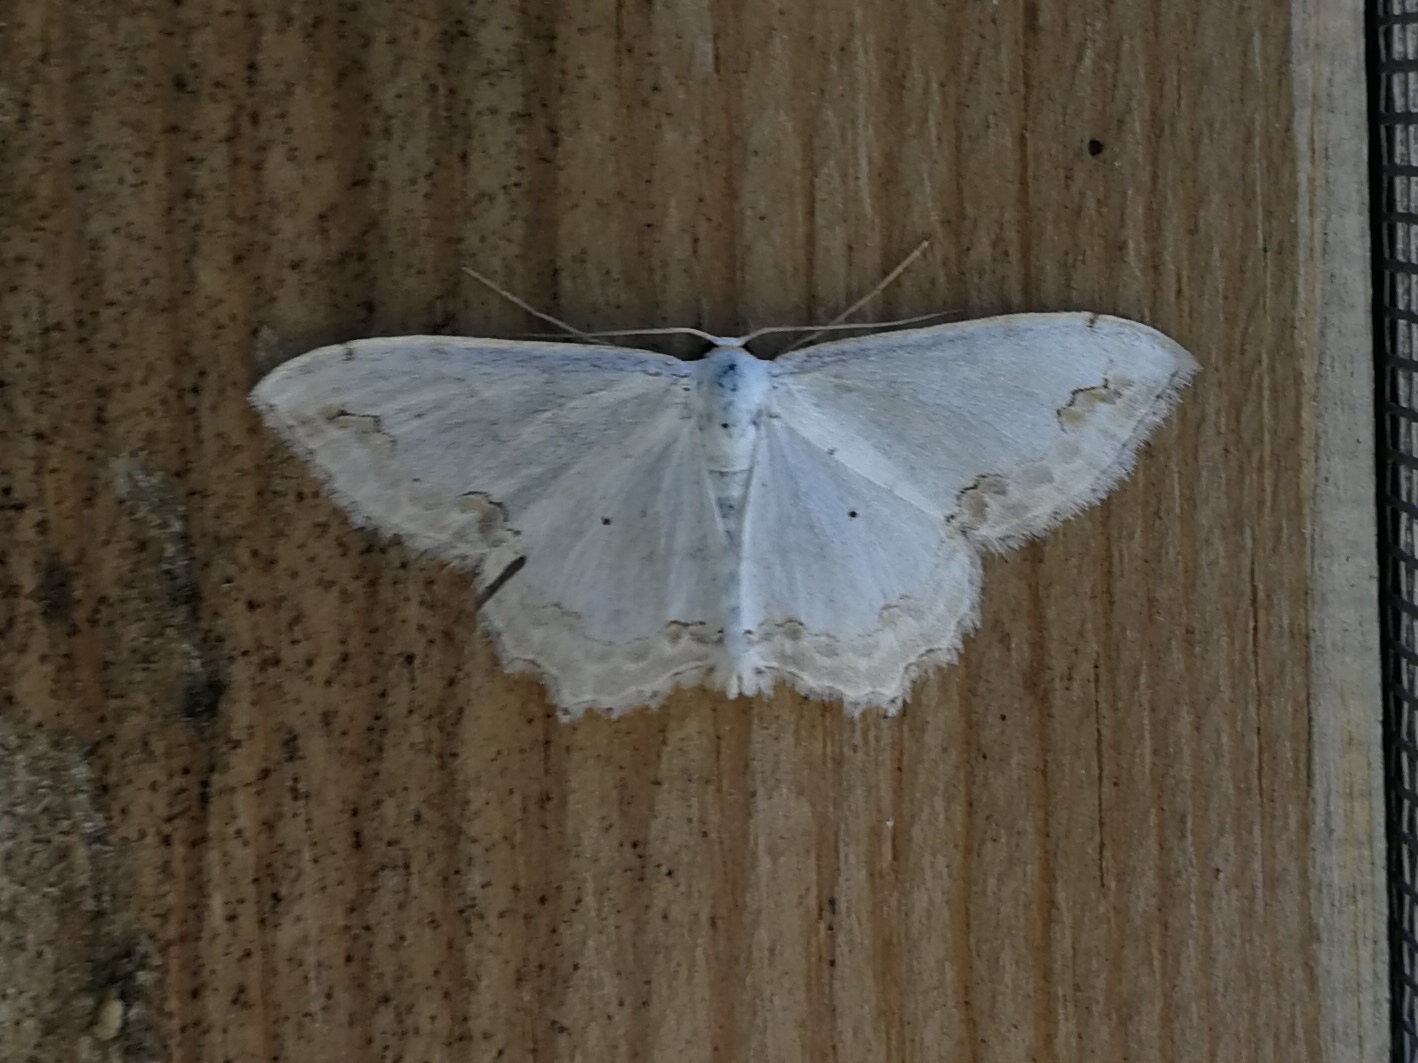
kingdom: Animalia
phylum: Arthropoda
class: Insecta
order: Lepidoptera
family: Geometridae
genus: Scopula
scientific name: Scopula ornata
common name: Lace border
